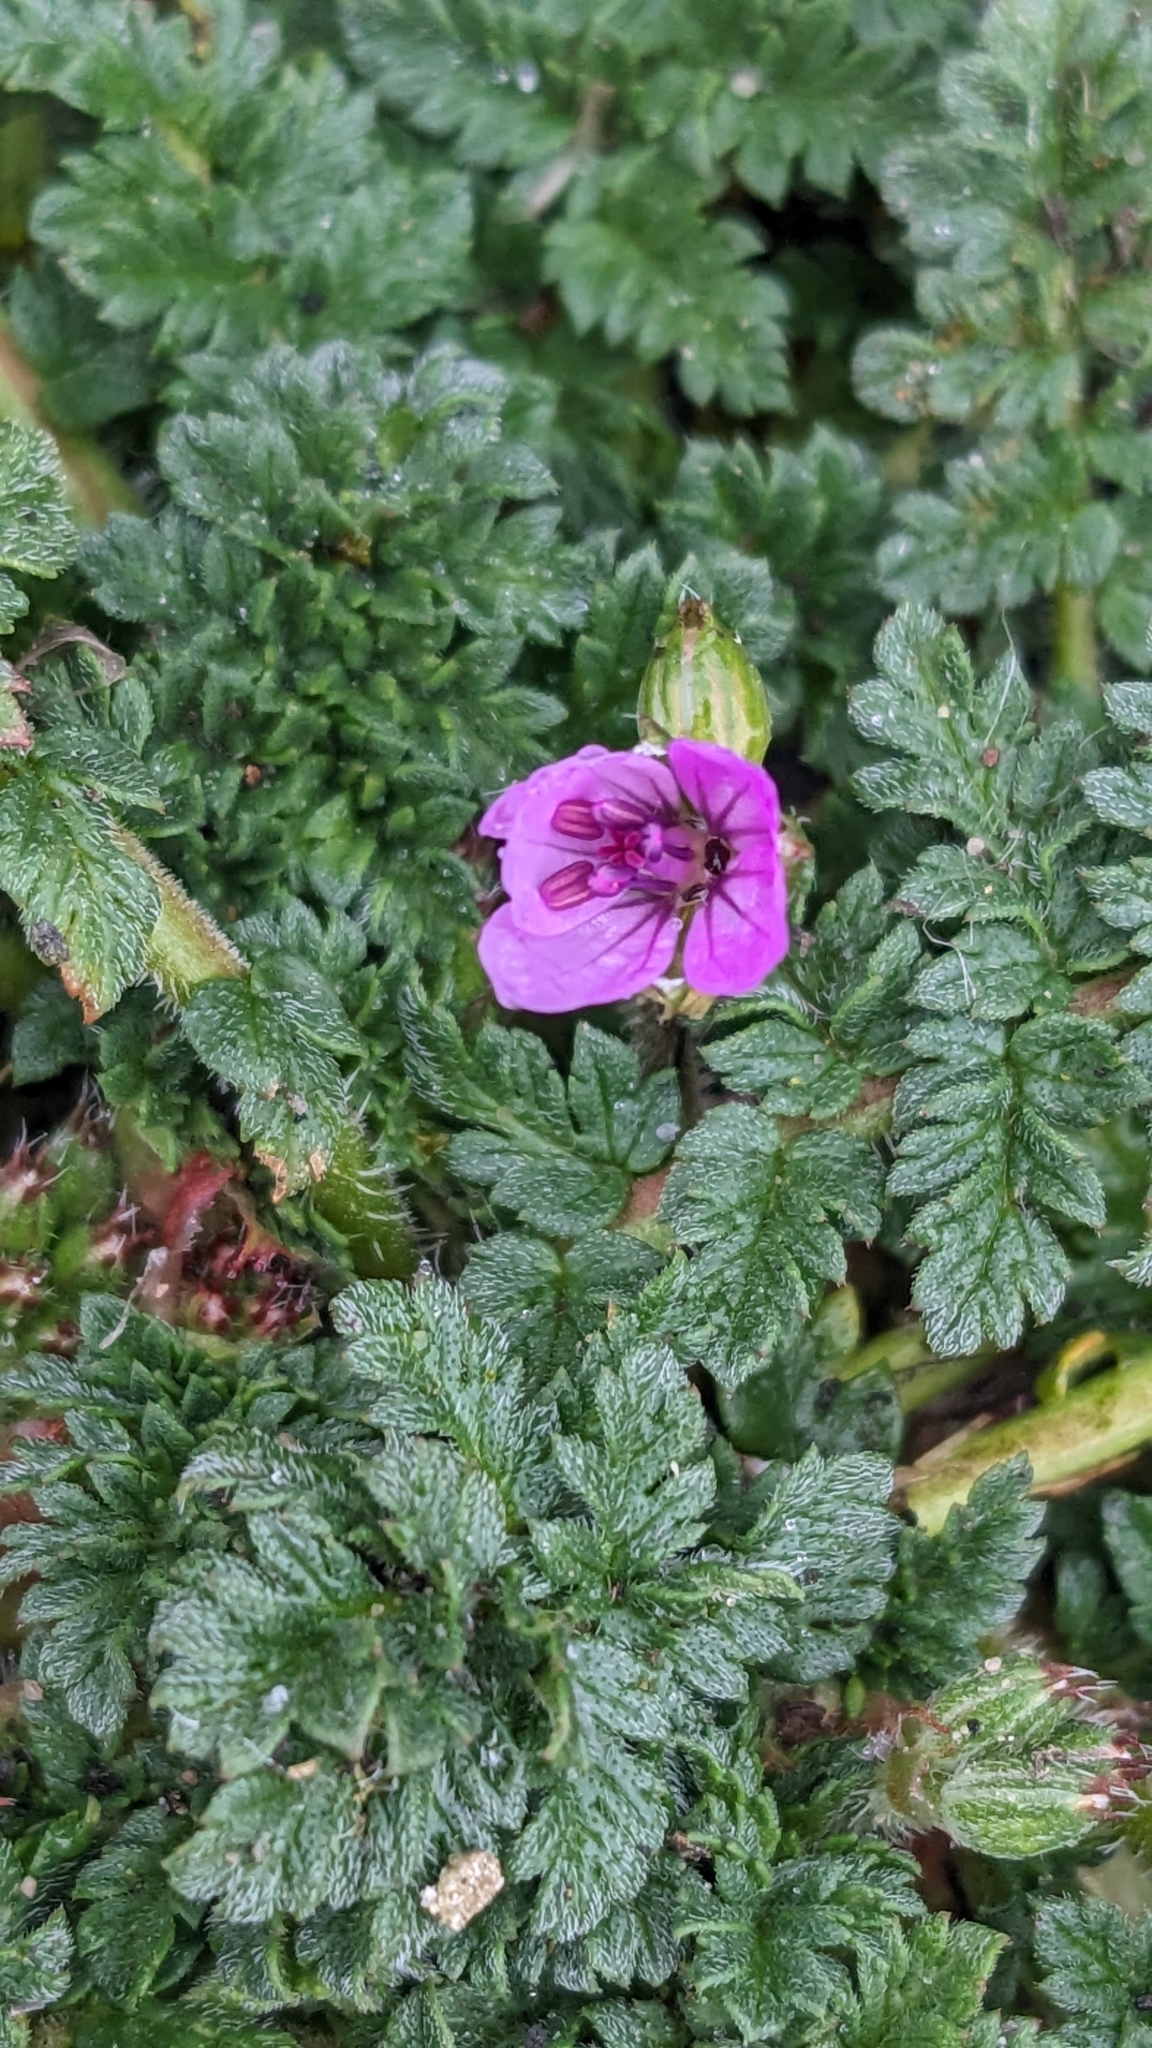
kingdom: Plantae
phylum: Tracheophyta
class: Magnoliopsida
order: Geraniales
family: Geraniaceae
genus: Erodium
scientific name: Erodium cicutarium
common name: Common stork's-bill
